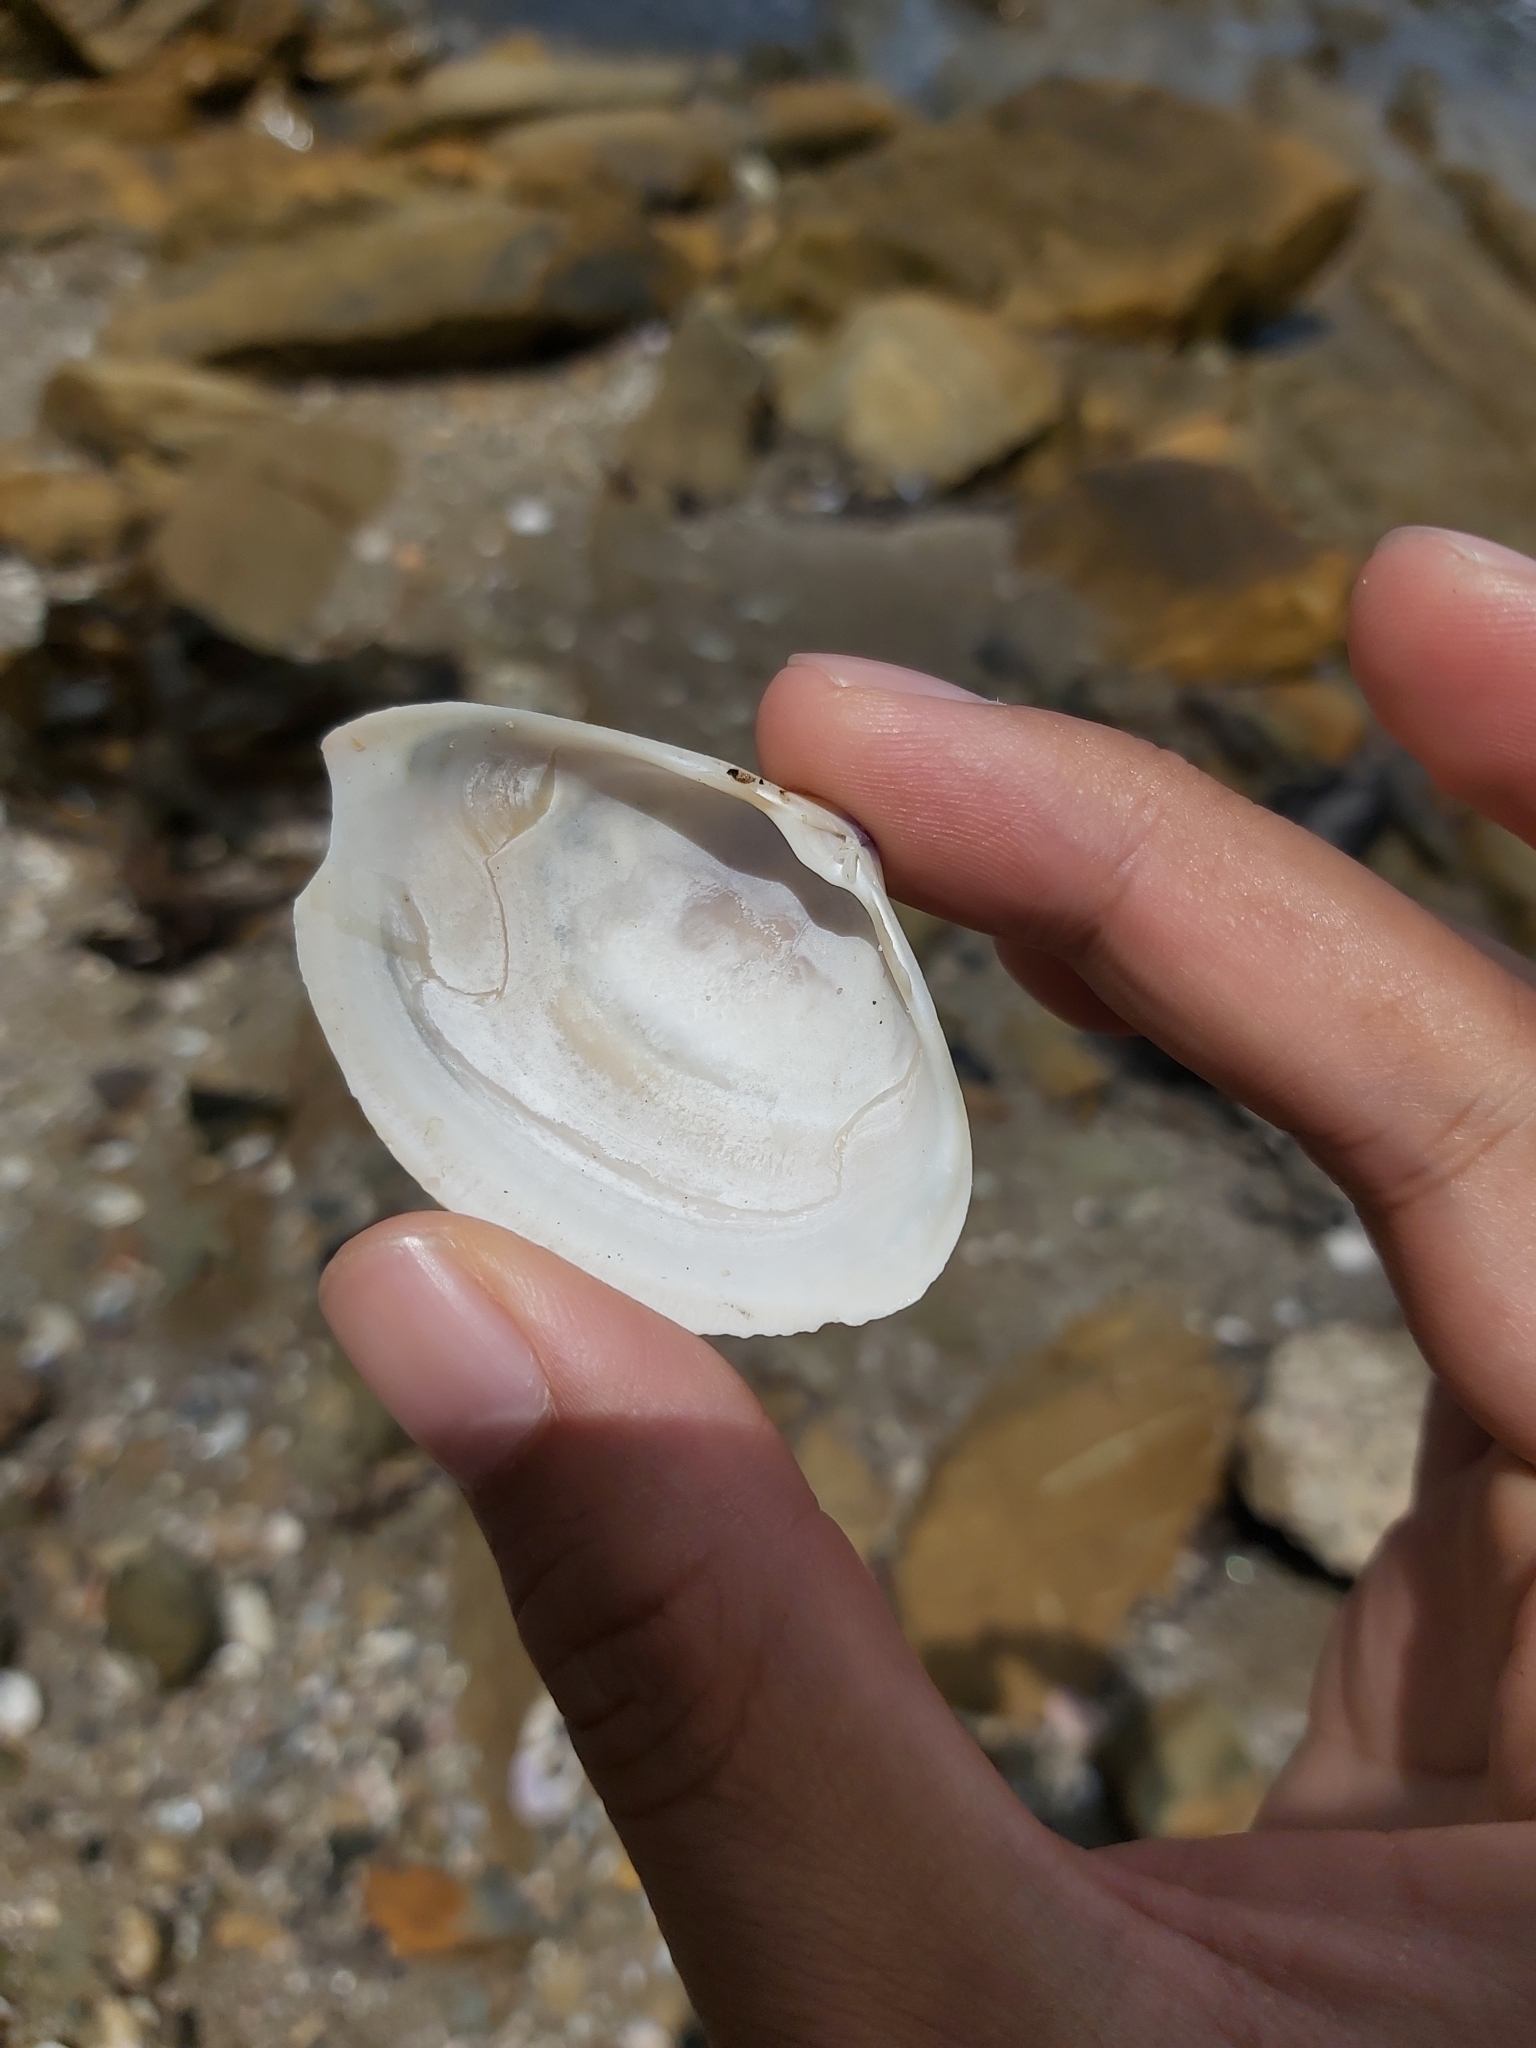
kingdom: Animalia
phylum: Mollusca
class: Bivalvia
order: Venerida
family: Mactridae
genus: Austromactra
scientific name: Austromactra rufescens
